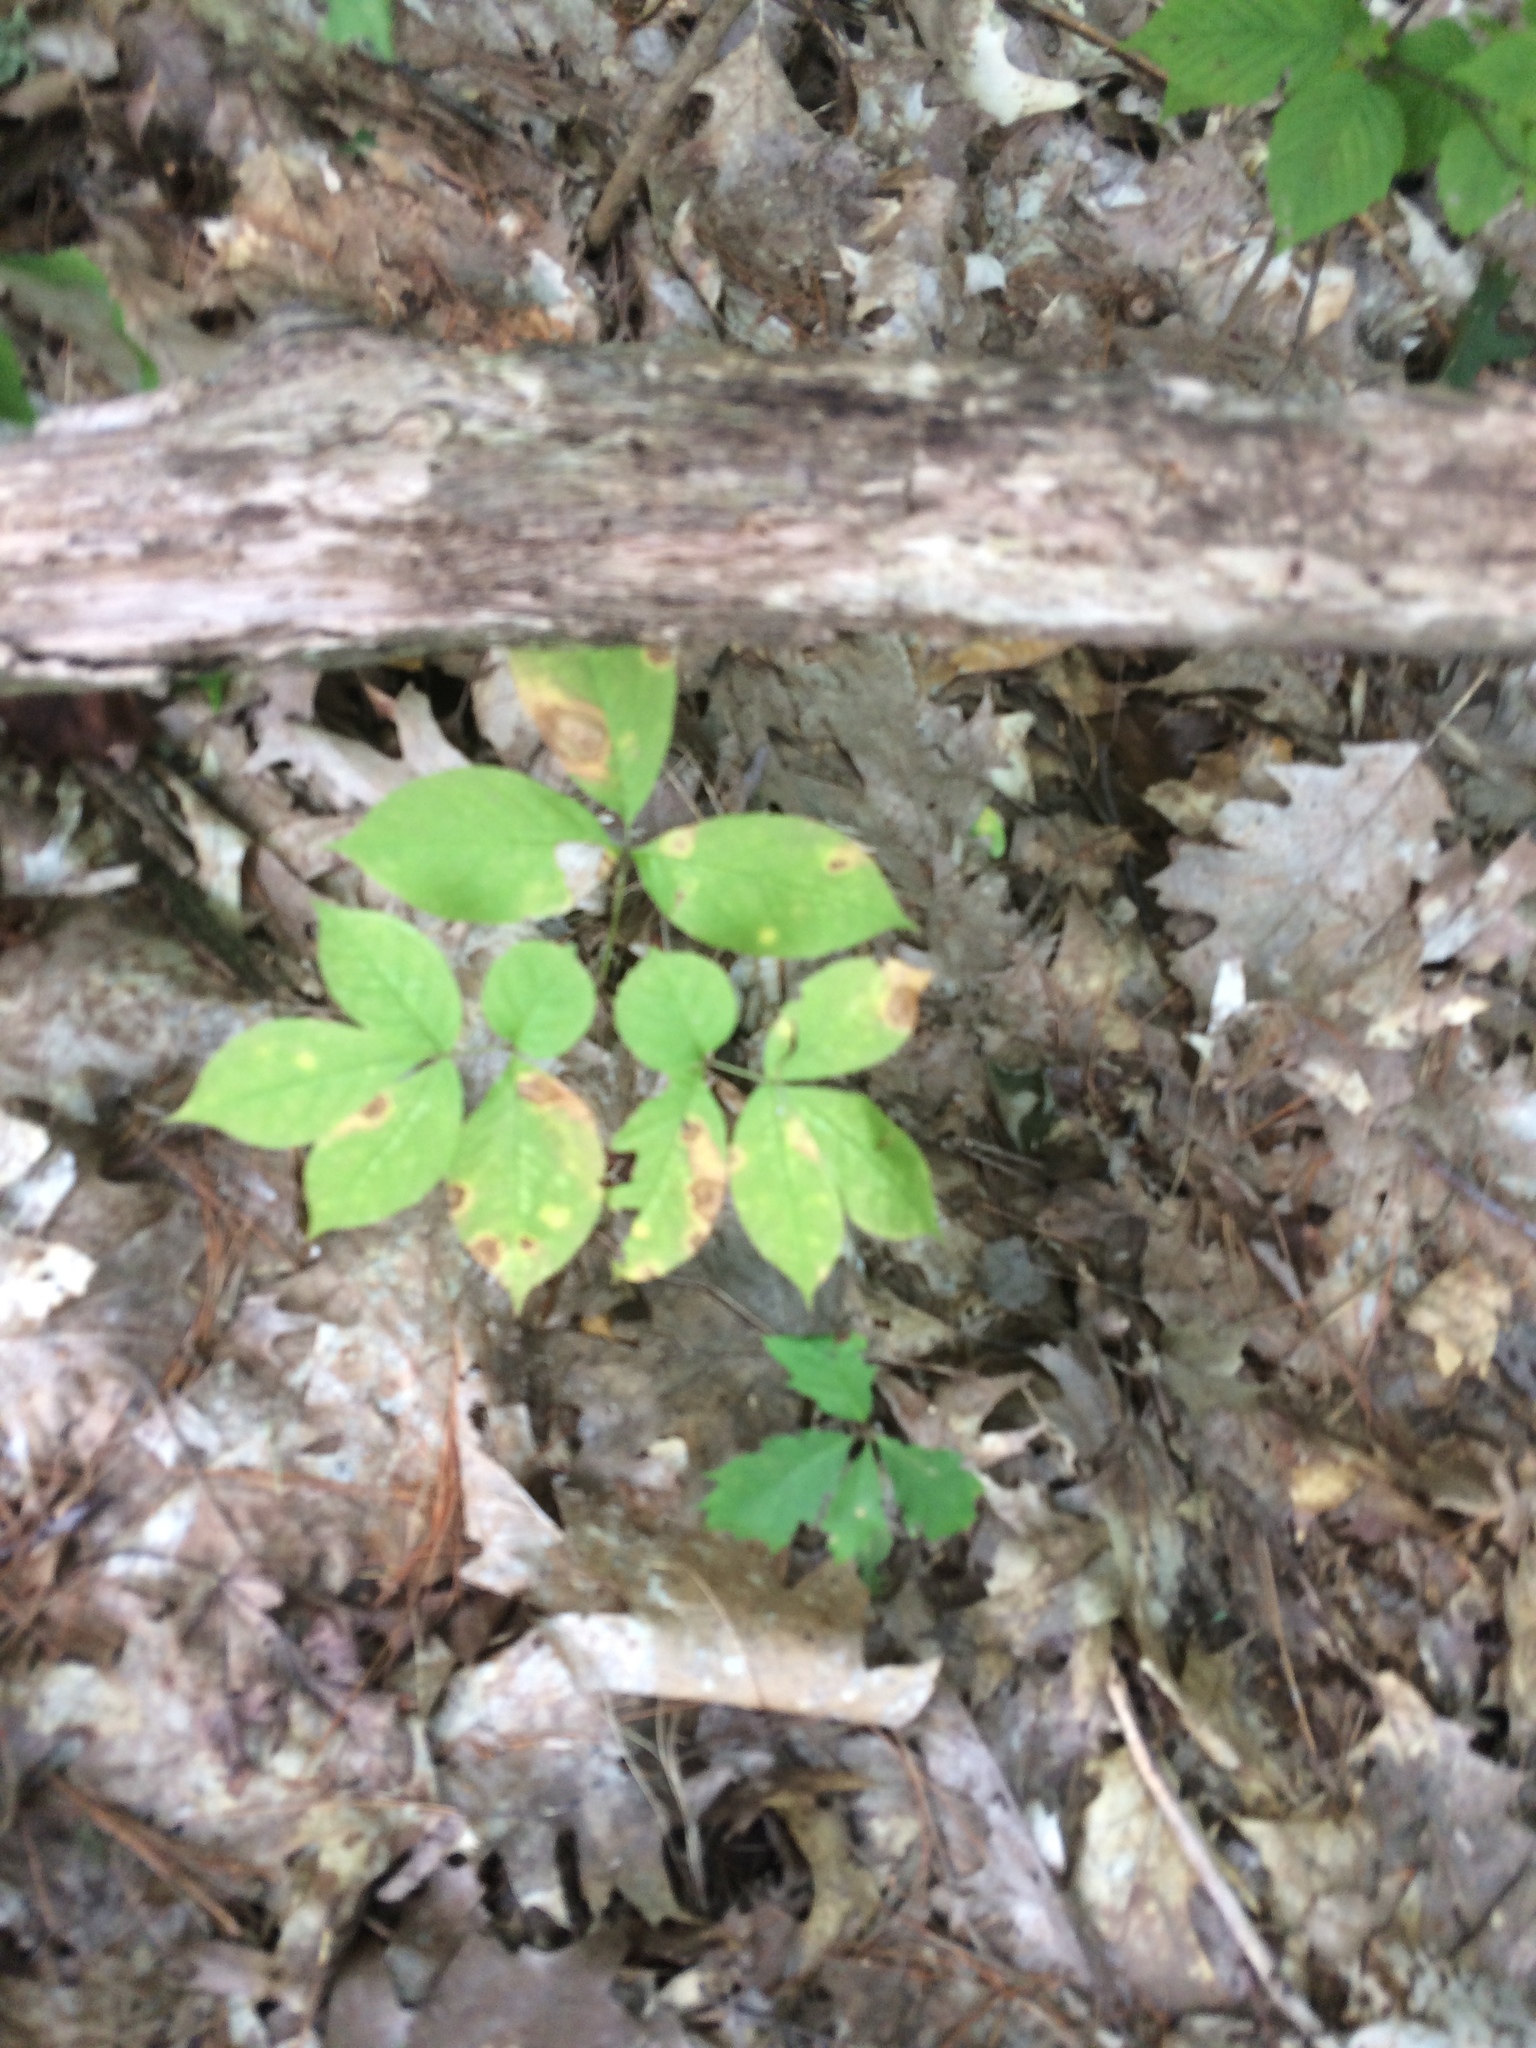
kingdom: Plantae
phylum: Tracheophyta
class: Magnoliopsida
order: Apiales
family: Araliaceae
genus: Aralia
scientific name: Aralia nudicaulis
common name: Wild sarsaparilla
